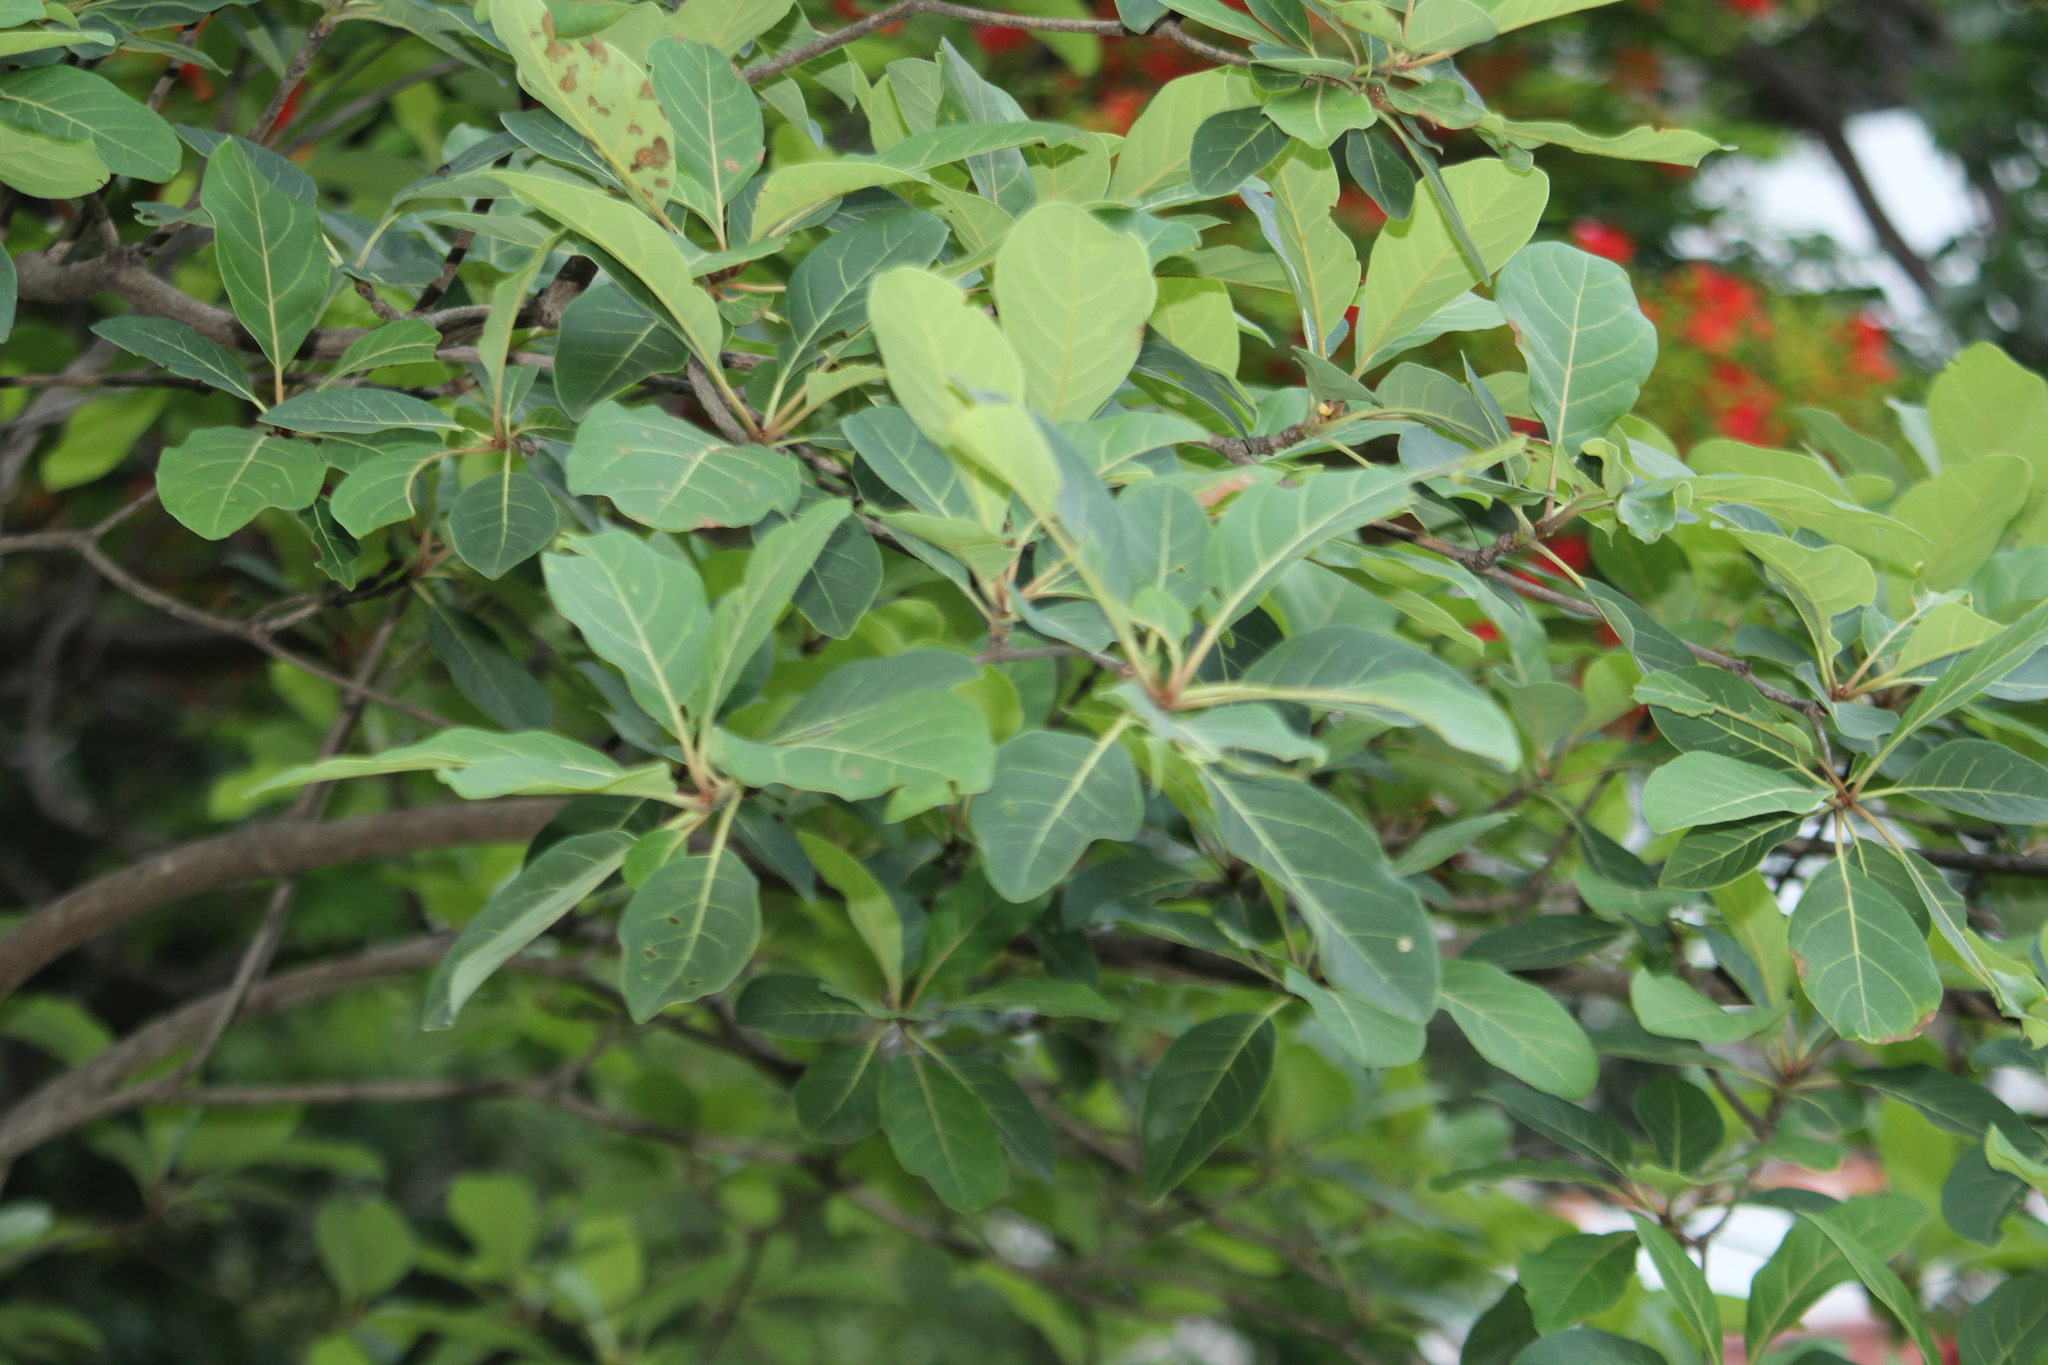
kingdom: Plantae
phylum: Tracheophyta
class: Magnoliopsida
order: Myrtales
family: Combretaceae
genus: Terminalia
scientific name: Terminalia bellirica
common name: Beleric myrobalan
